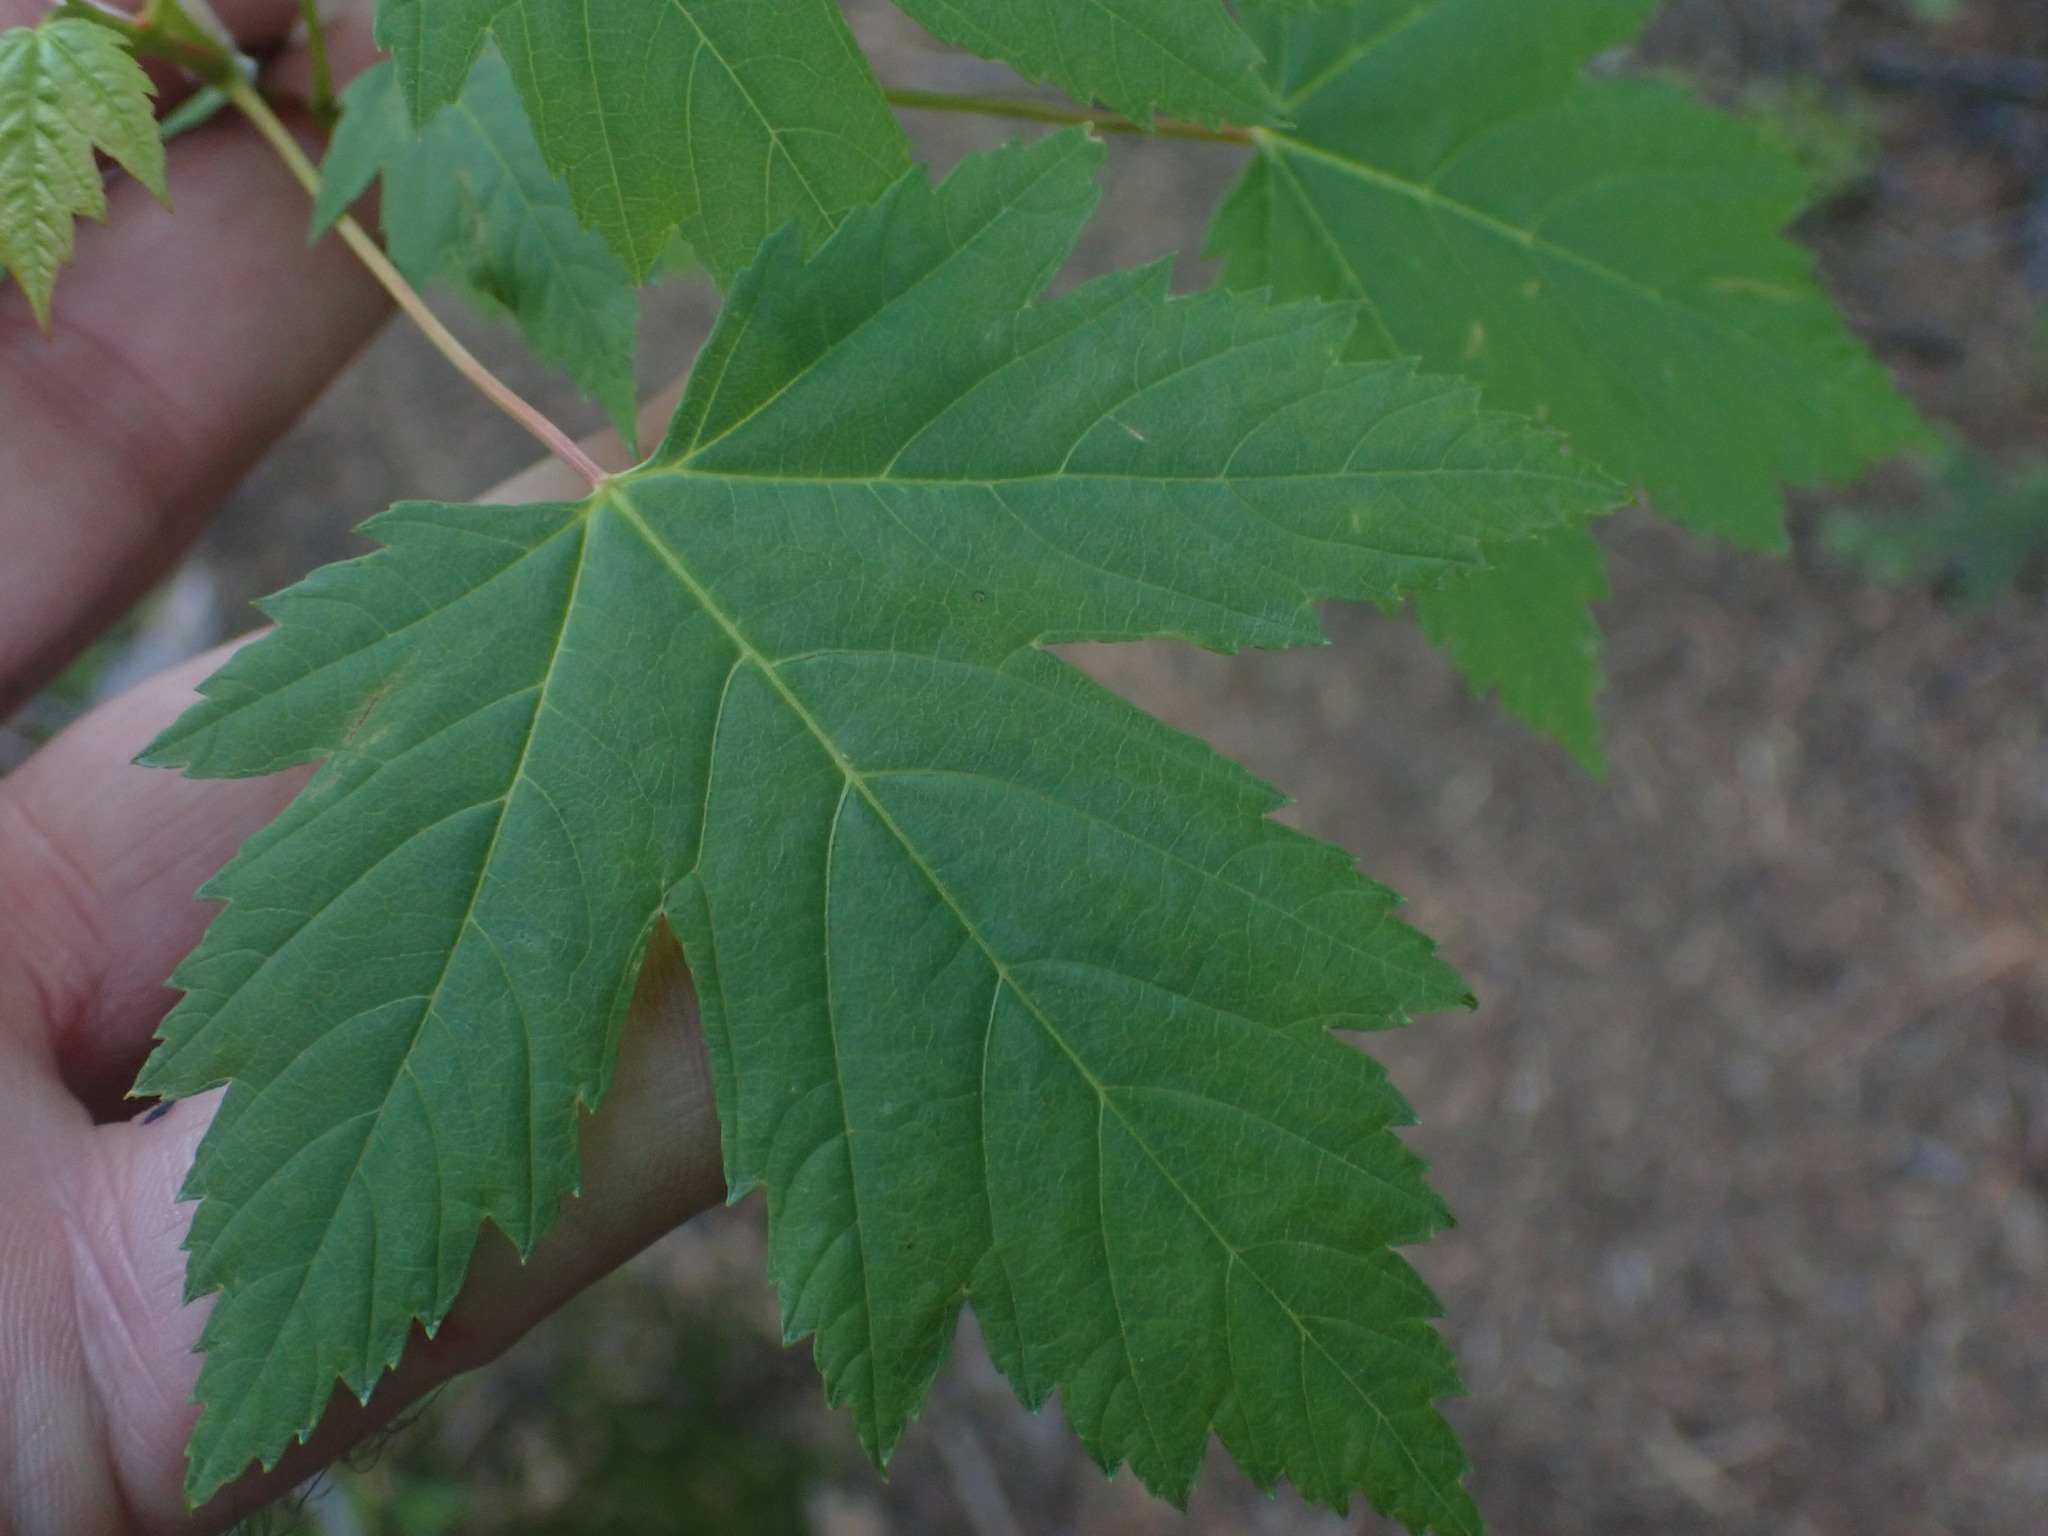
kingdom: Plantae
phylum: Tracheophyta
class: Magnoliopsida
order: Sapindales
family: Sapindaceae
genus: Acer
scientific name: Acer glabrum
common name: Rocky mountain maple
